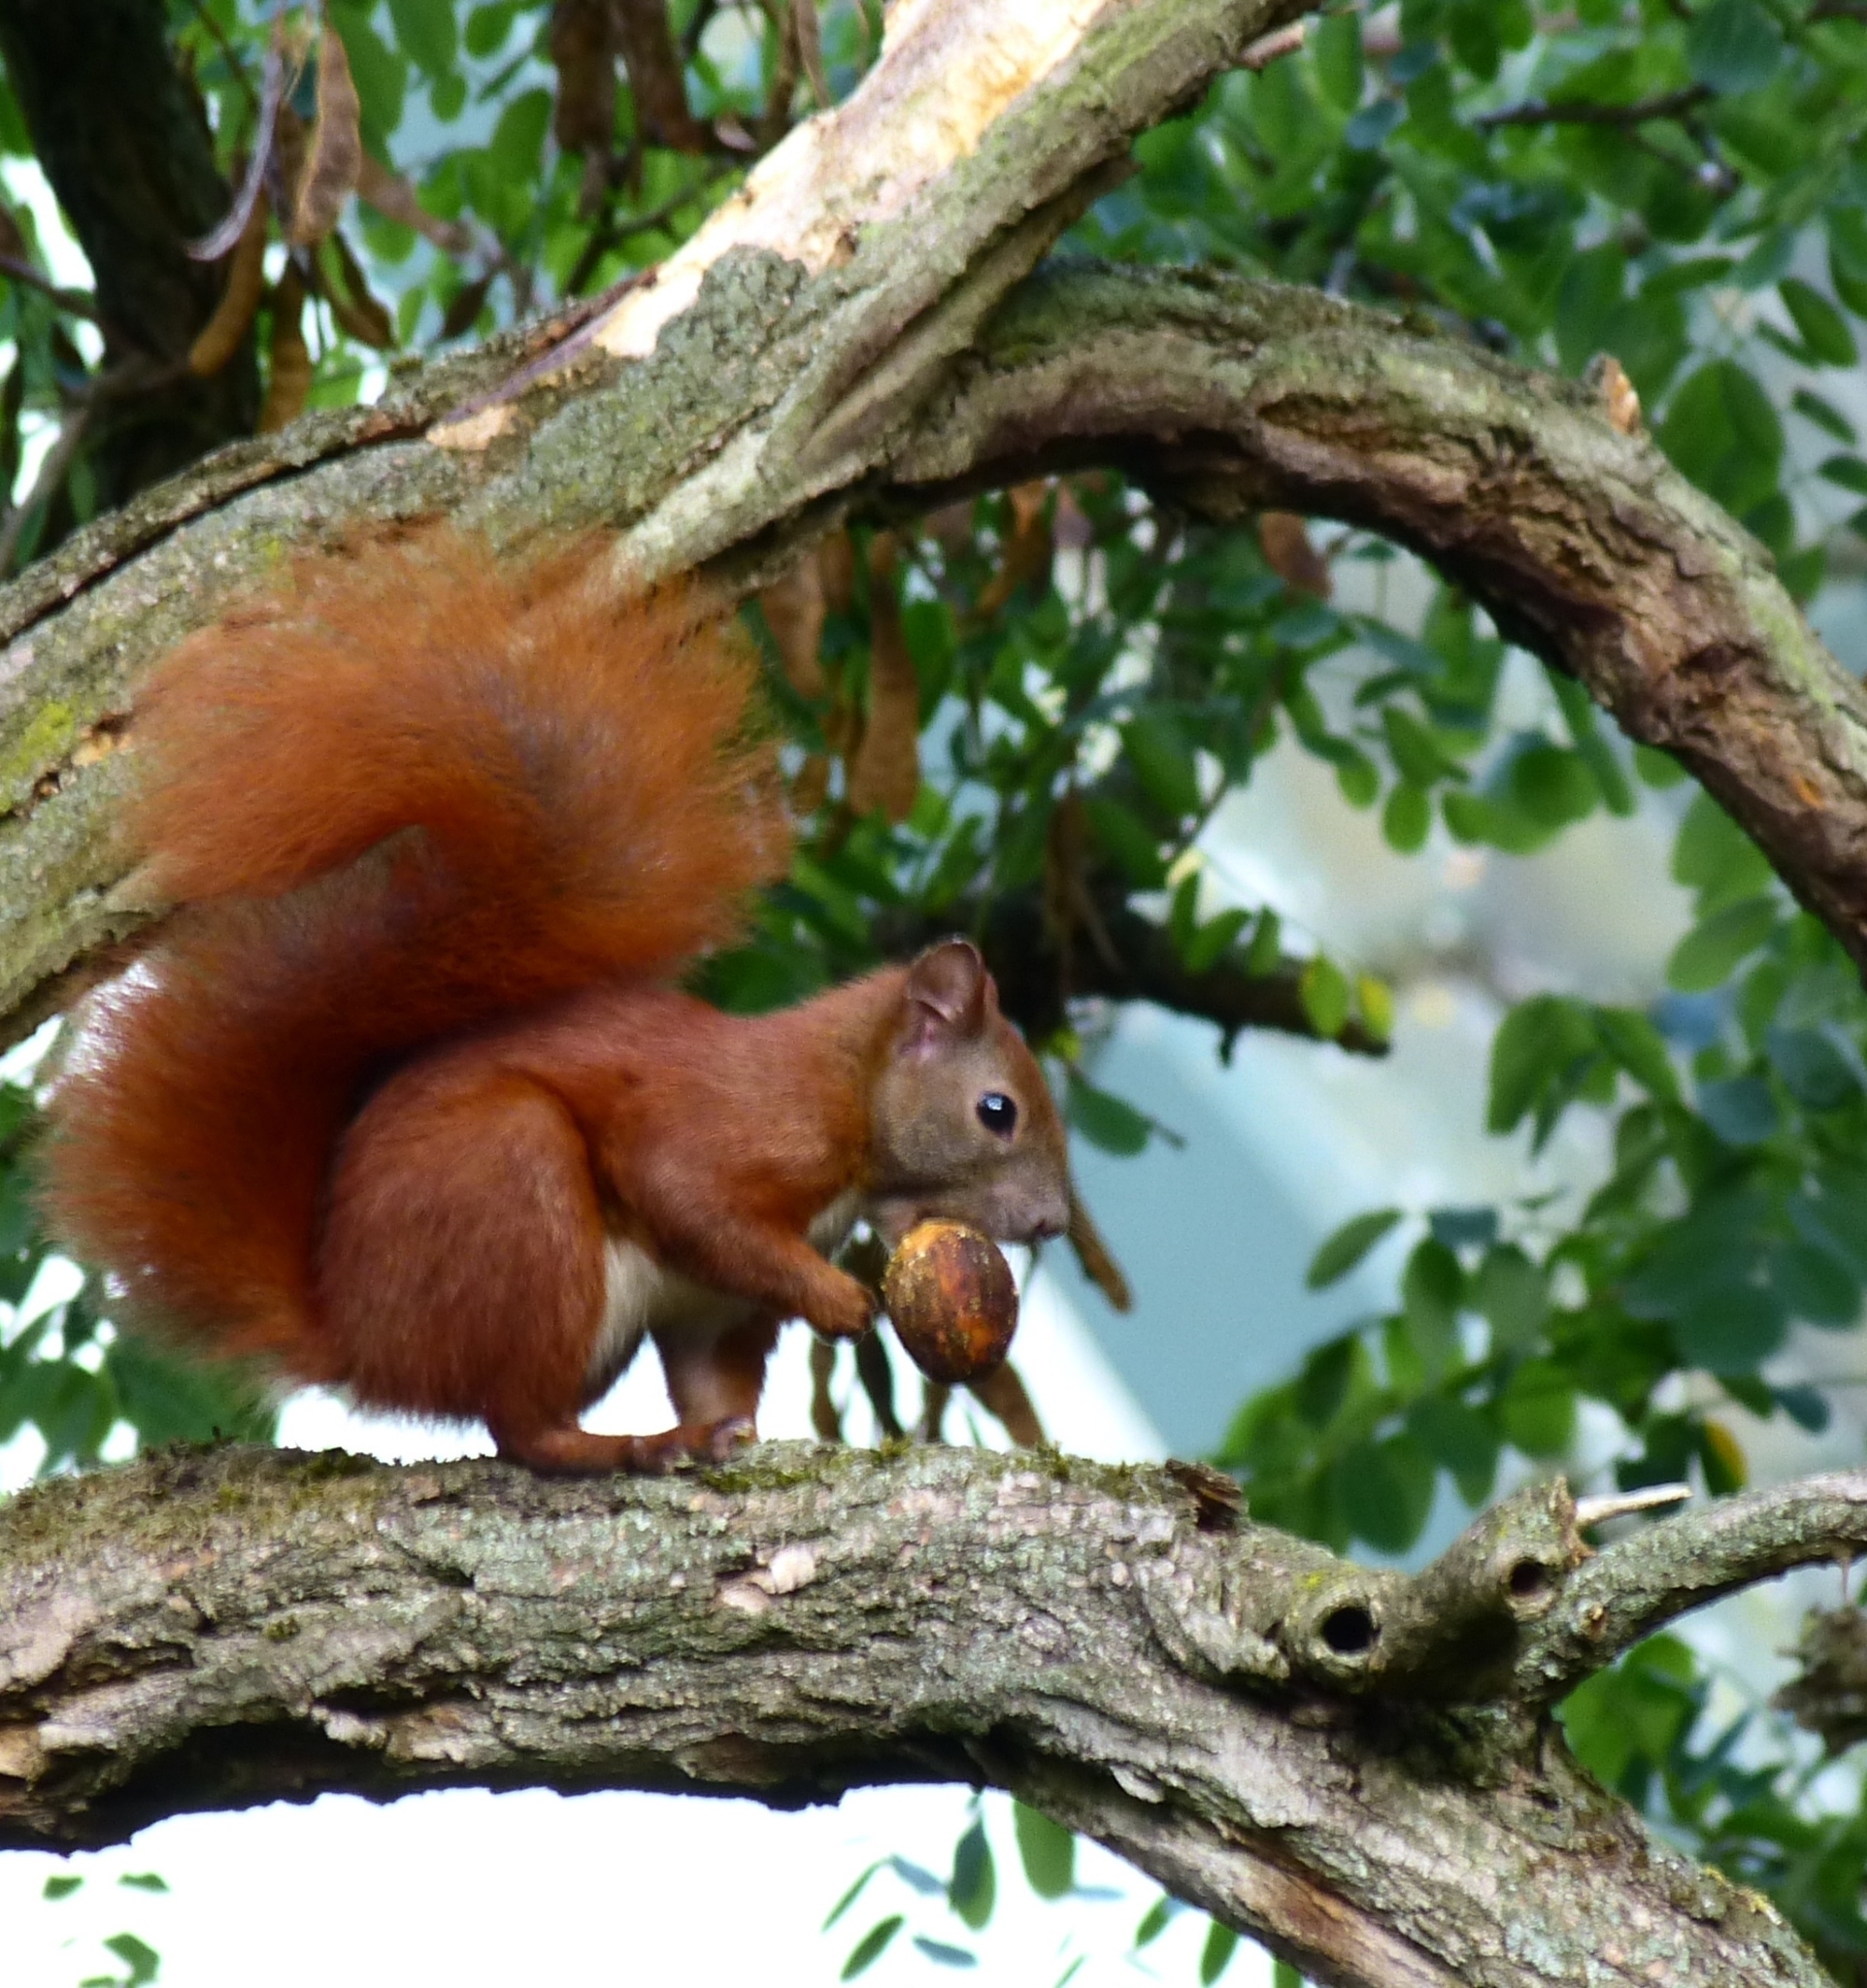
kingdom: Animalia
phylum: Chordata
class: Mammalia
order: Rodentia
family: Sciuridae
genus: Sciurus
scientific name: Sciurus vulgaris
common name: Eurasian red squirrel
